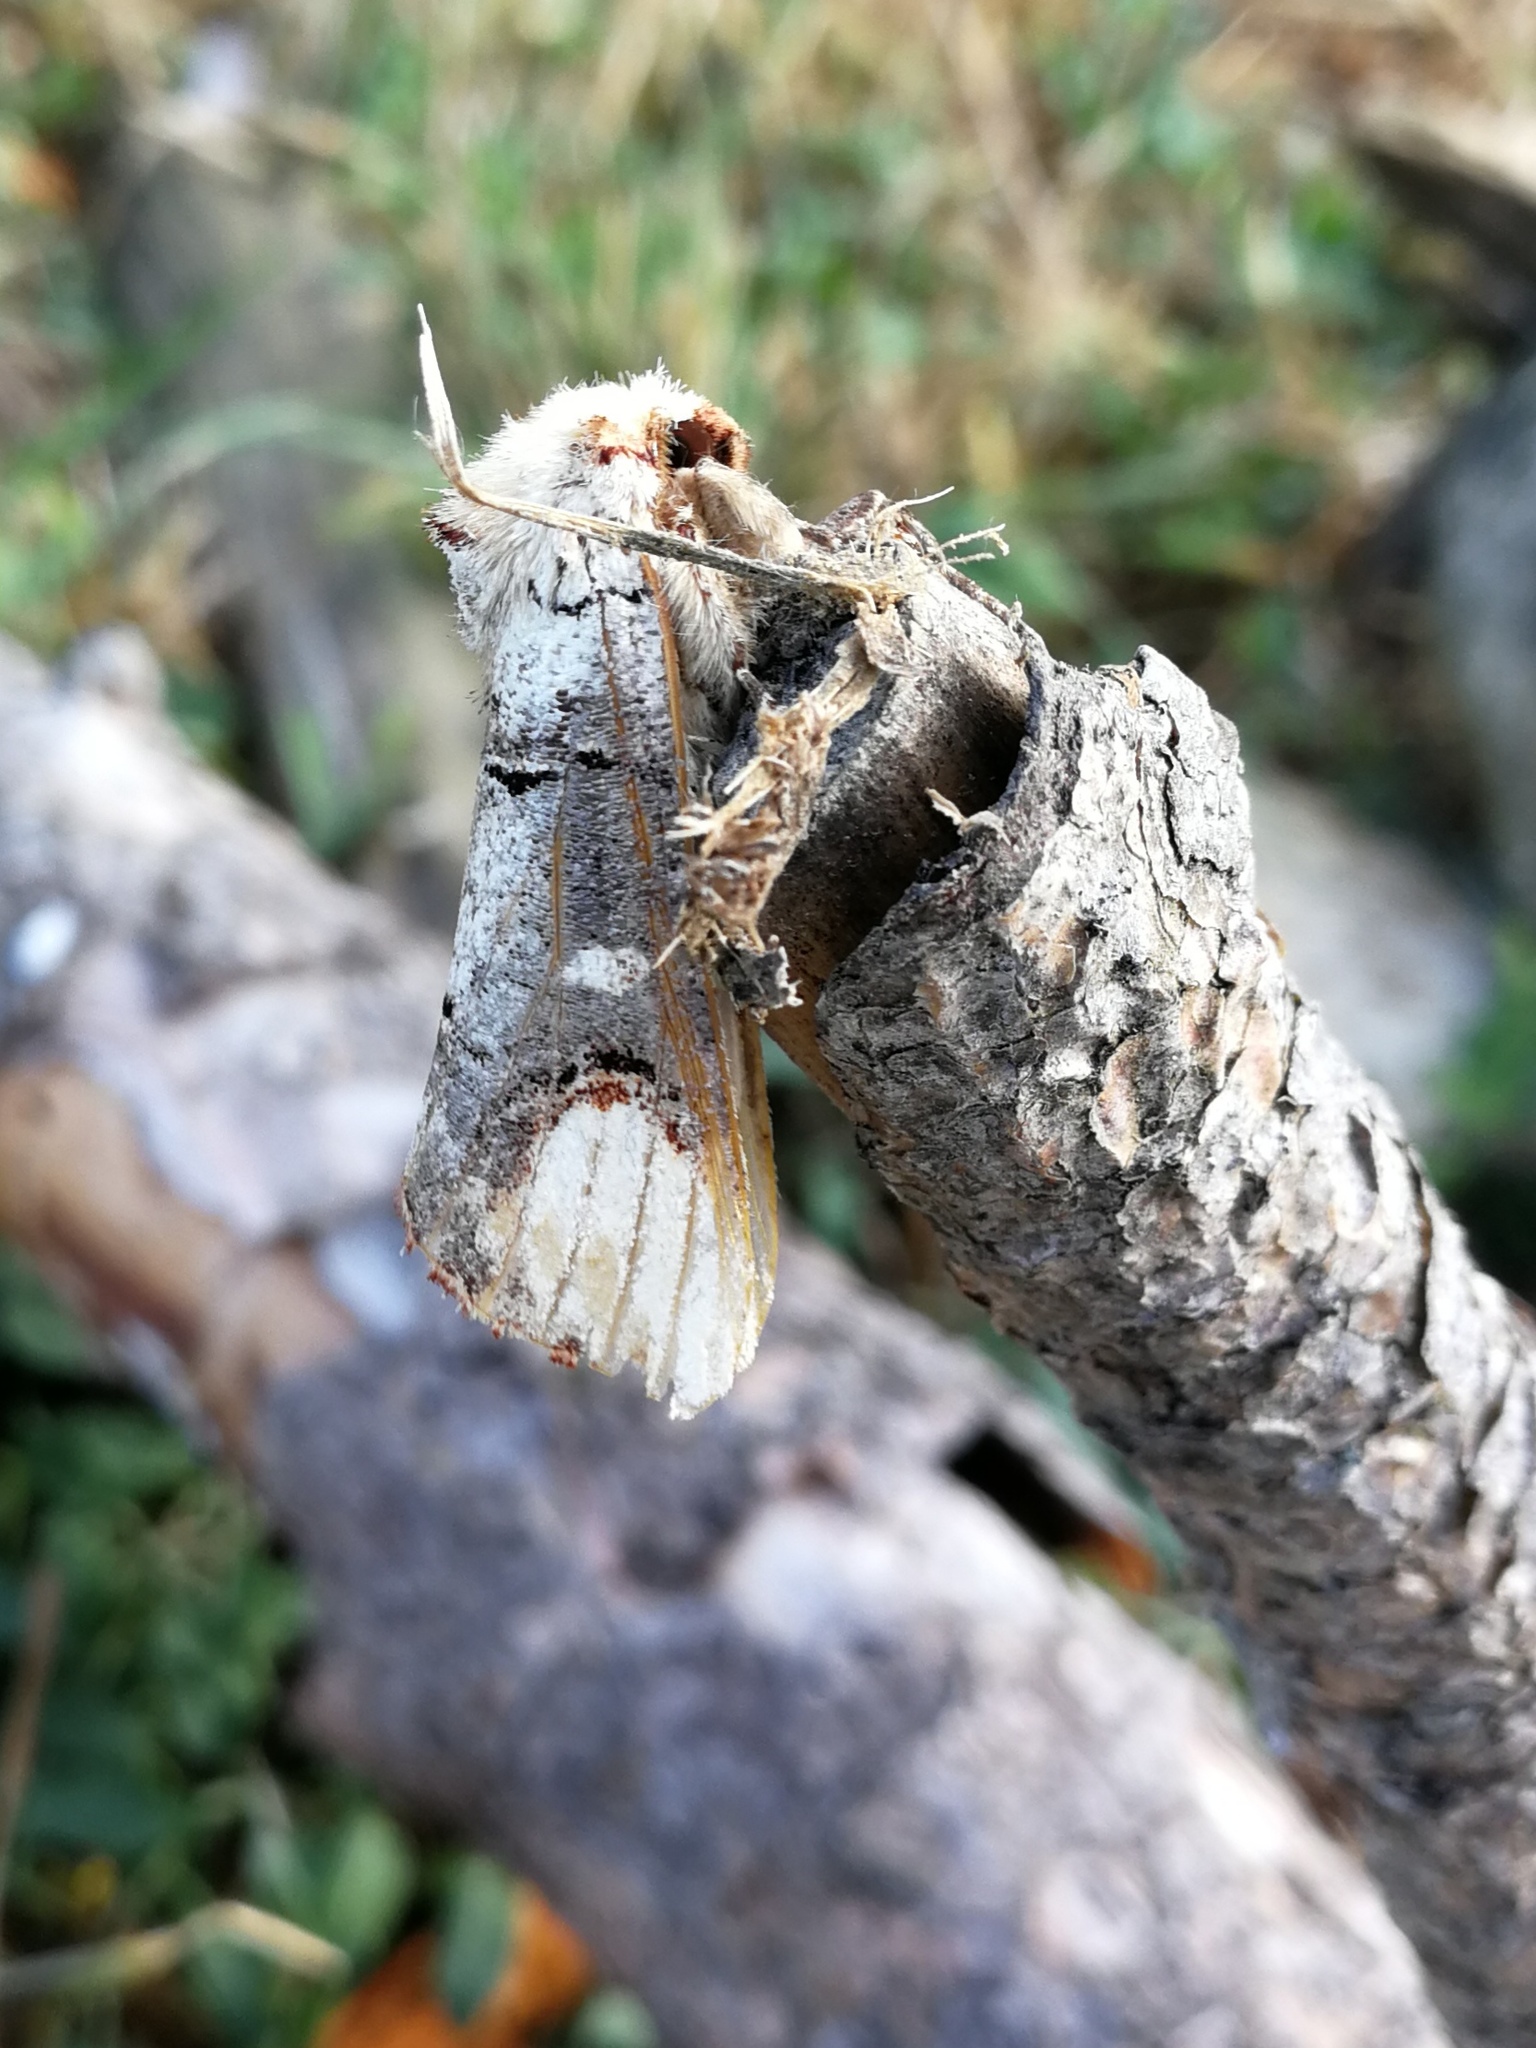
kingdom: Animalia
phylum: Arthropoda
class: Insecta
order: Lepidoptera
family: Notodontidae
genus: Phalera
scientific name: Phalera bucephala
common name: Buff-tip
